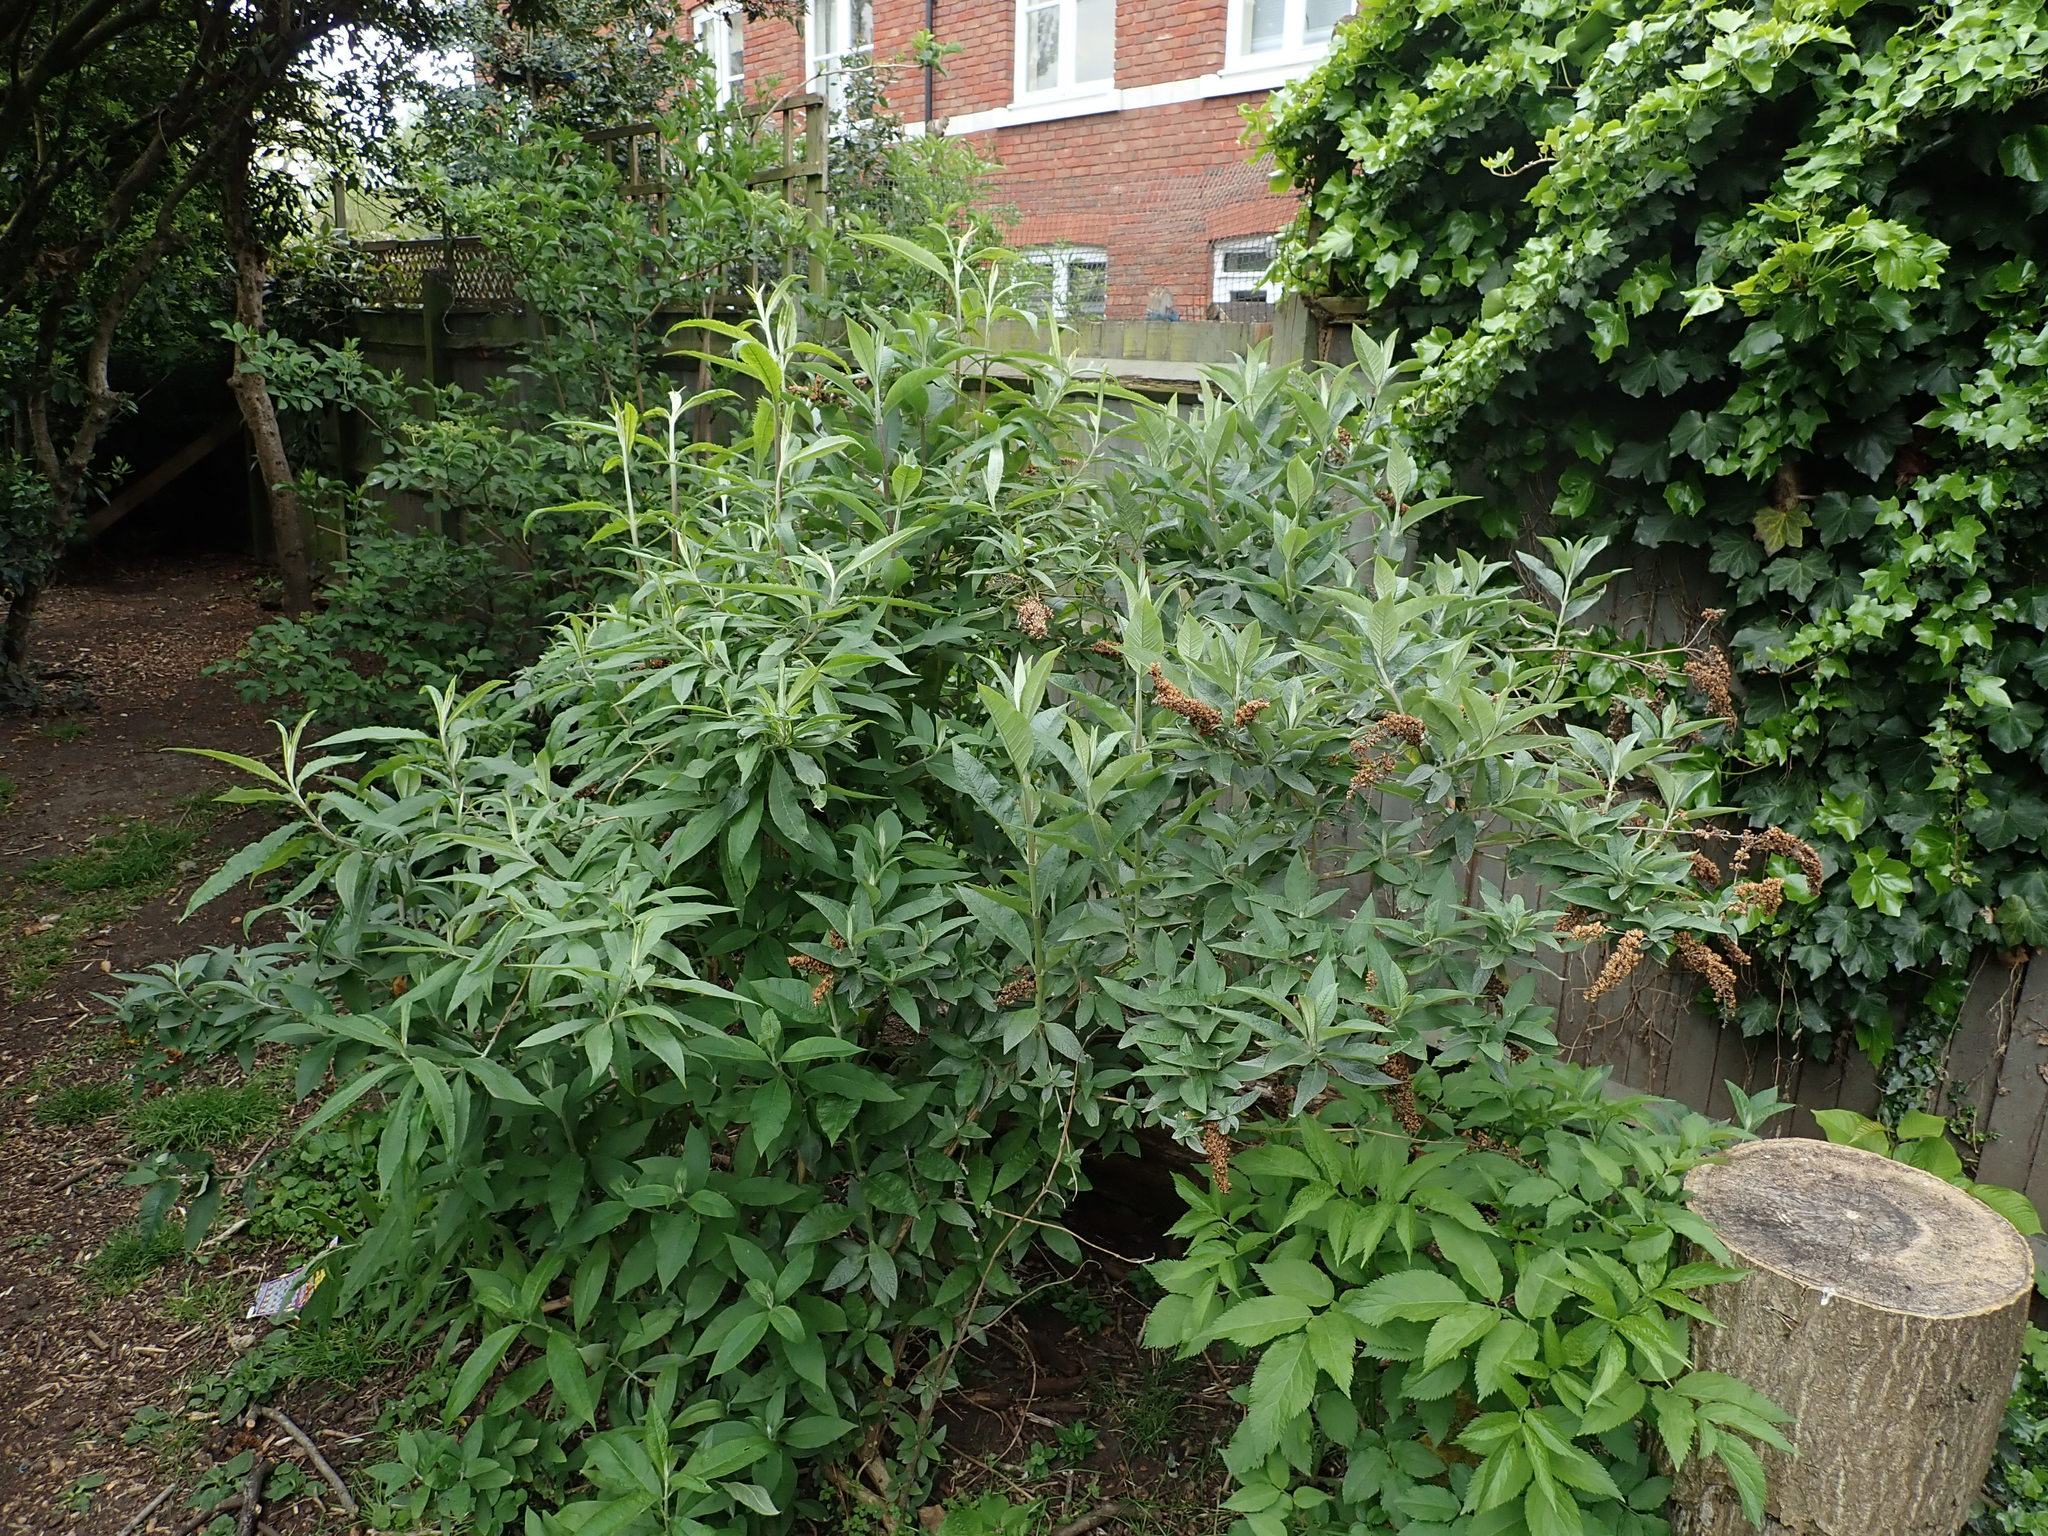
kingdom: Plantae
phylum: Tracheophyta
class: Magnoliopsida
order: Lamiales
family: Scrophulariaceae
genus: Buddleja
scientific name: Buddleja davidii
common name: Butterfly-bush
